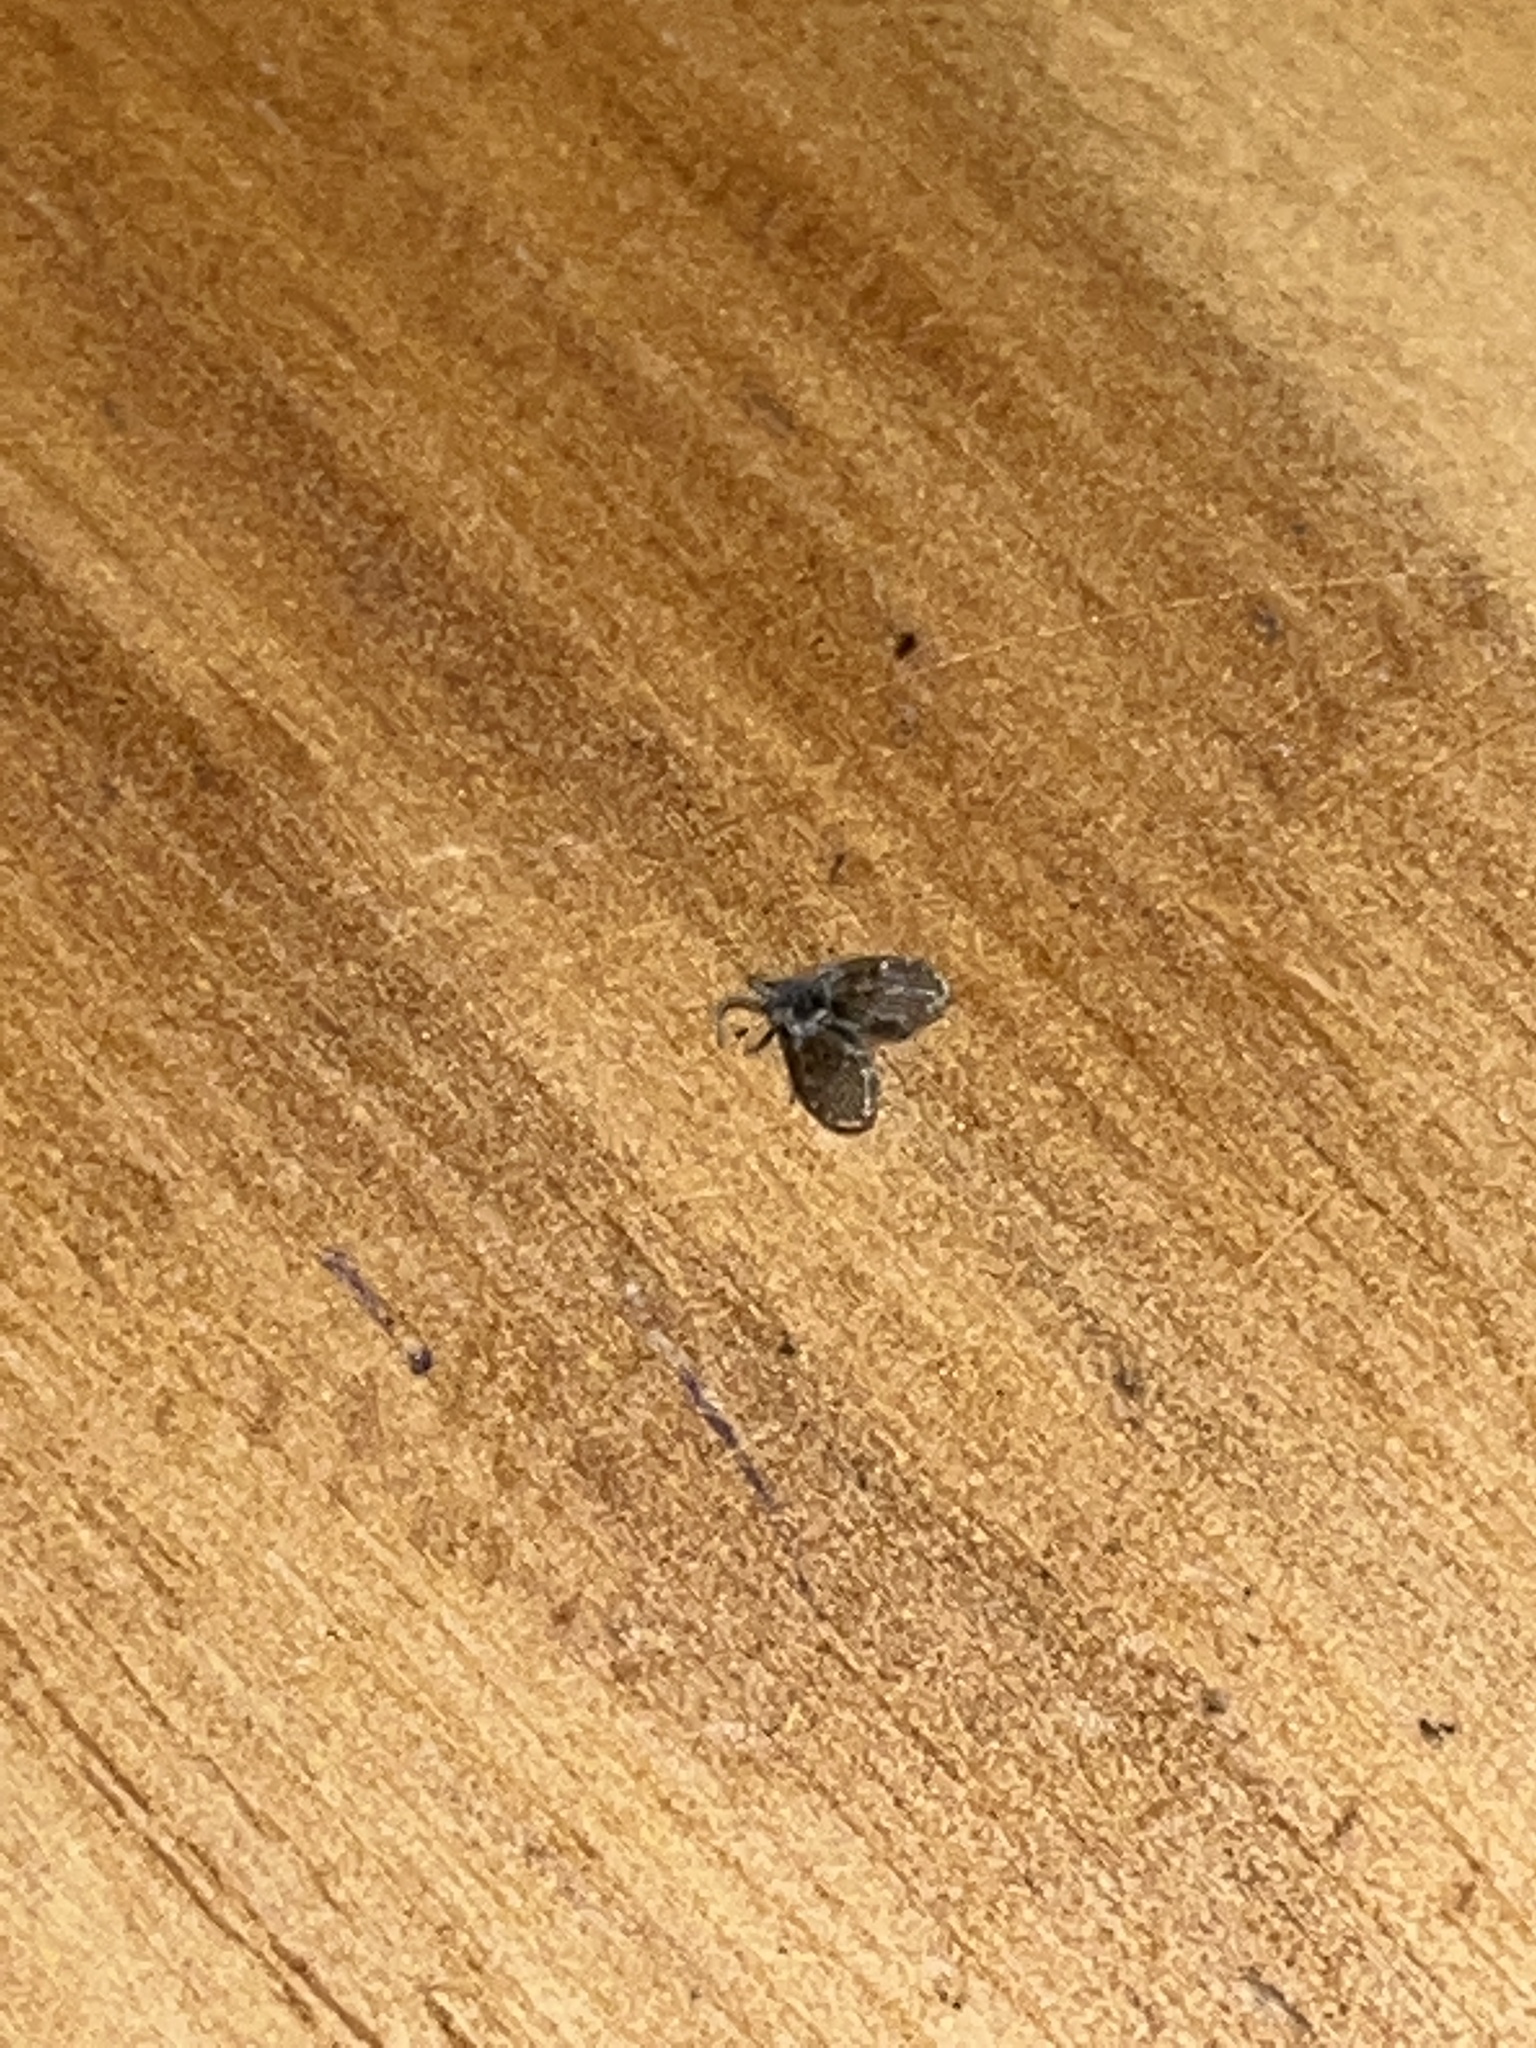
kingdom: Animalia
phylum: Arthropoda
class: Insecta
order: Diptera
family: Psychodidae
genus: Clogmia
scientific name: Clogmia albipunctatus
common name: White-spotted moth fly
